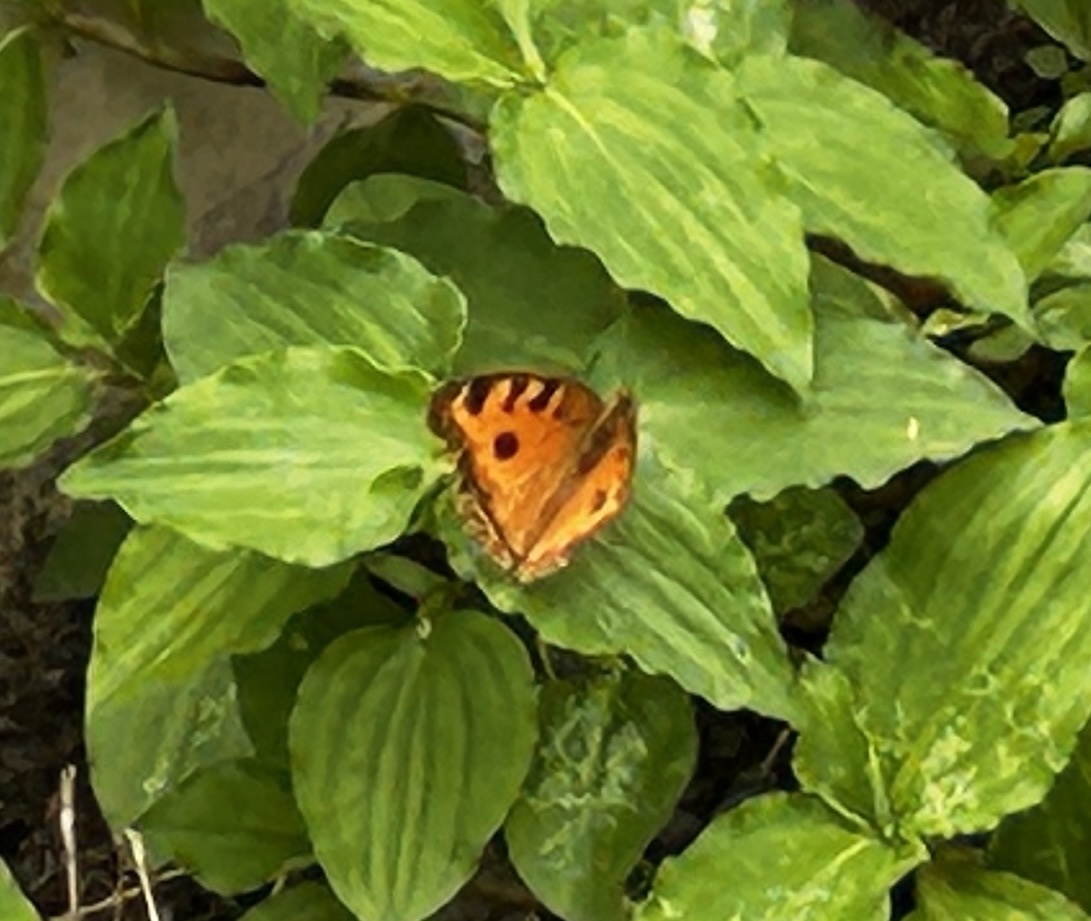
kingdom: Animalia
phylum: Arthropoda
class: Insecta
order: Lepidoptera
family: Nymphalidae
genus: Junonia
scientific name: Junonia almana
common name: Peacock pansy
